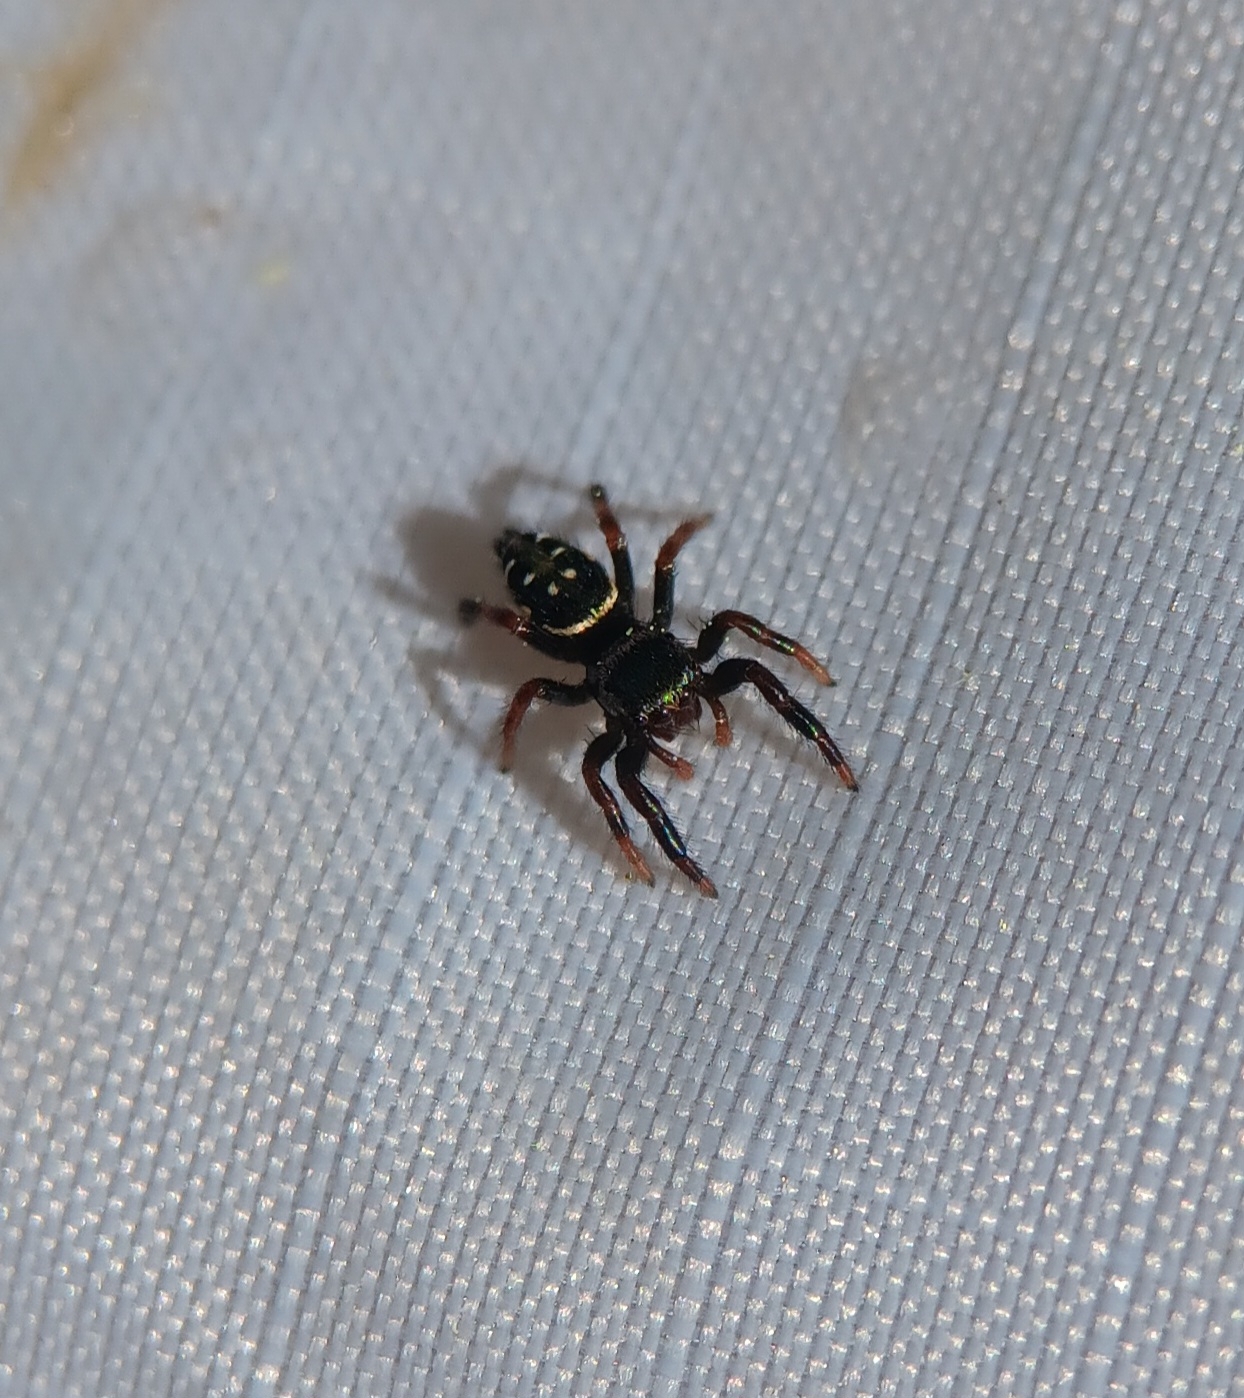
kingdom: Animalia
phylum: Arthropoda
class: Arachnida
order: Araneae
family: Salticidae
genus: Paraphidippus
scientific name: Paraphidippus aurantius
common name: Jumping spiders
